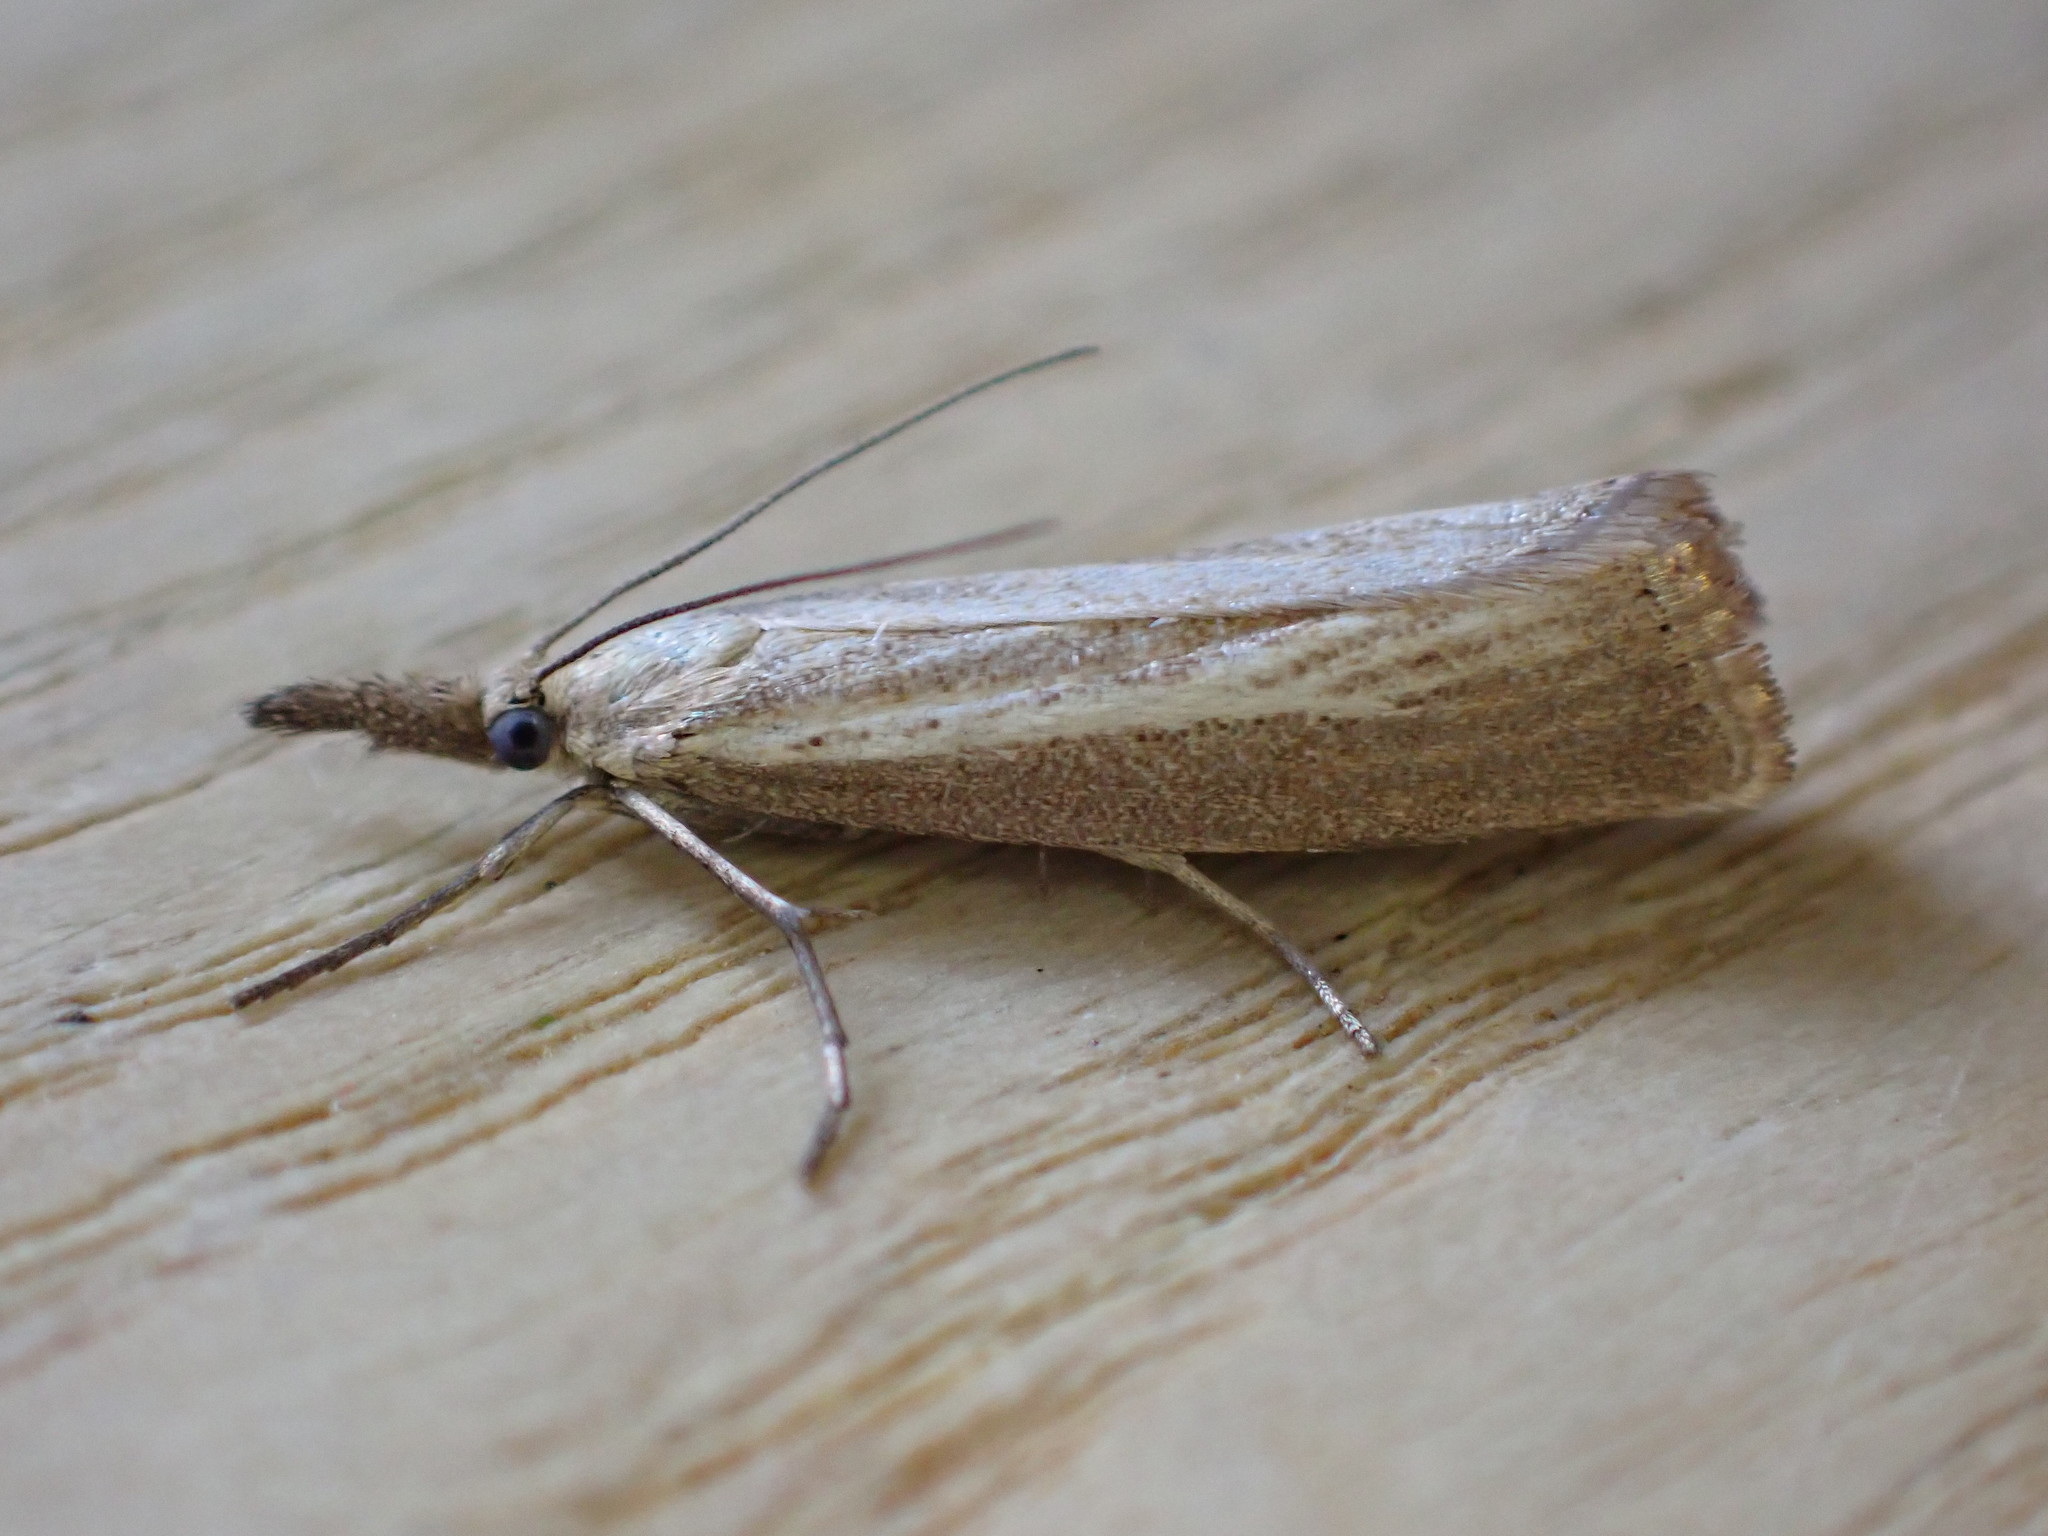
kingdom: Animalia
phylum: Arthropoda
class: Insecta
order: Lepidoptera
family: Crambidae
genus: Agriphila
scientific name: Agriphila straminella
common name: Straw grass-veneer
